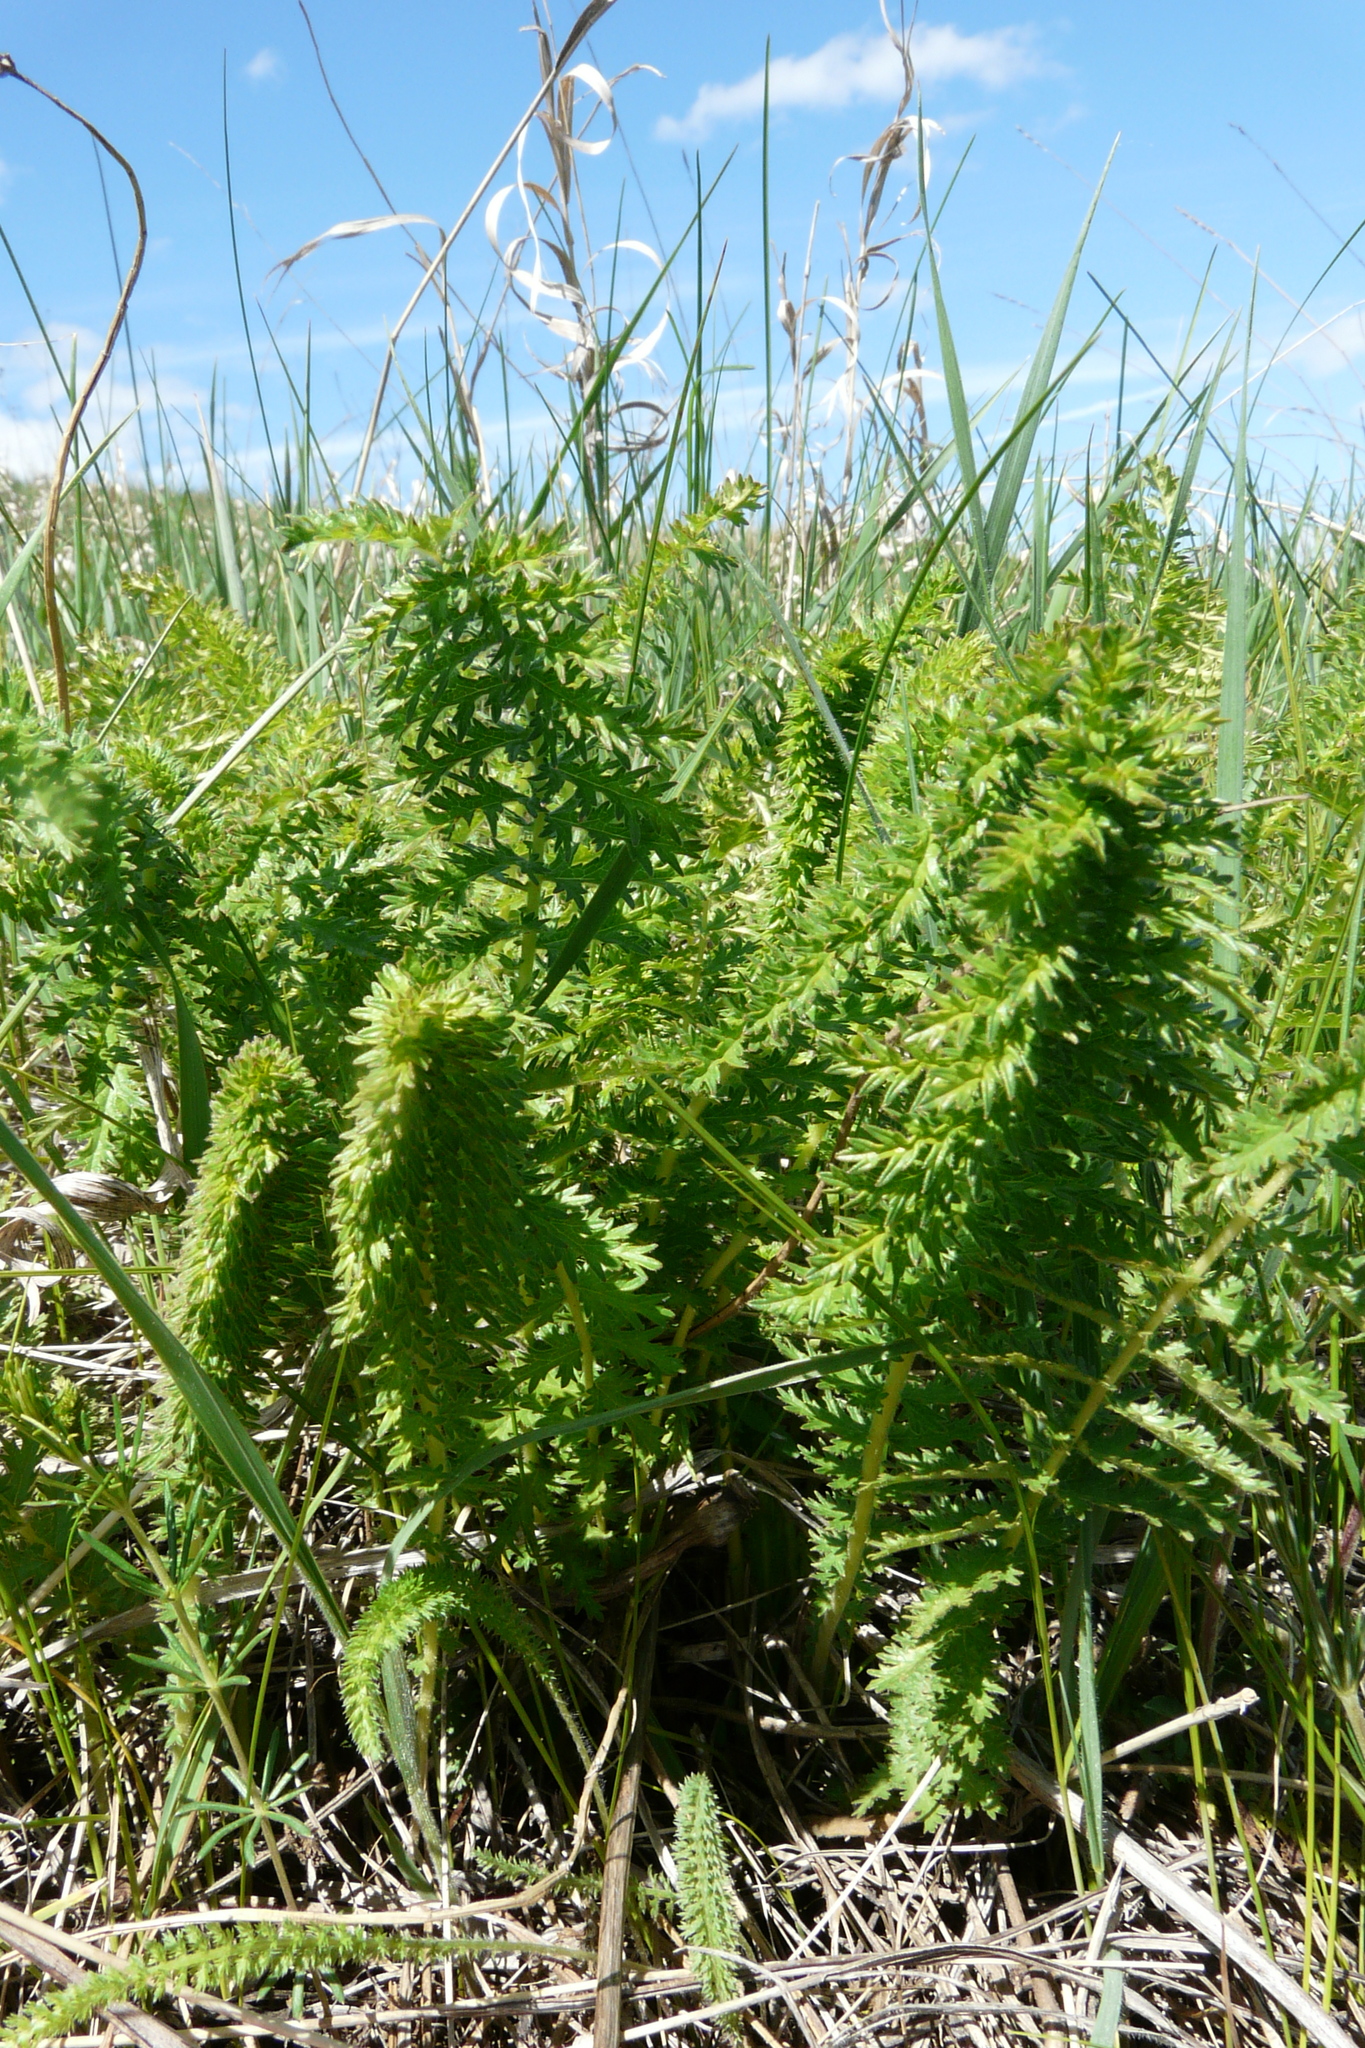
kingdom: Plantae
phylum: Tracheophyta
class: Magnoliopsida
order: Rosales
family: Rosaceae
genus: Filipendula
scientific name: Filipendula vulgaris
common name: Dropwort
